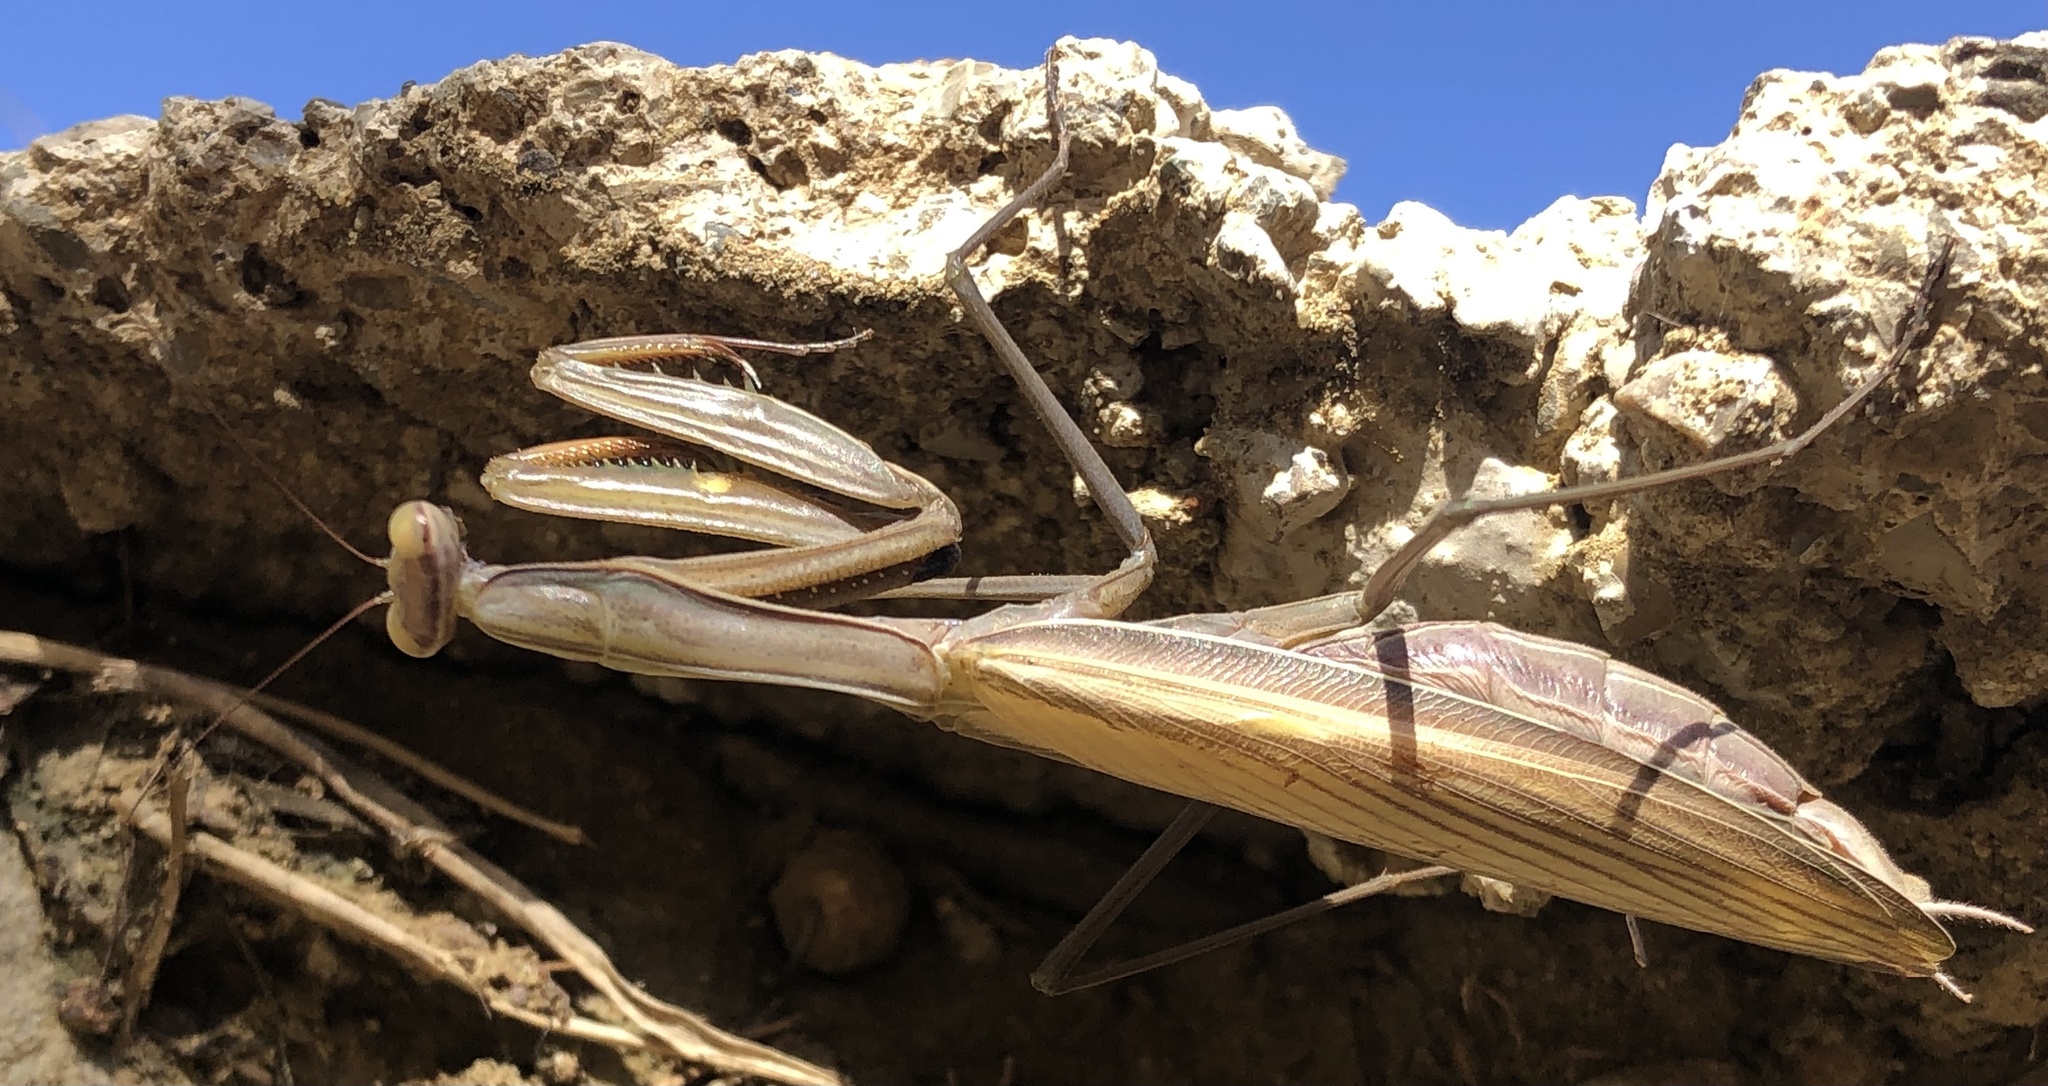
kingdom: Animalia
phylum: Arthropoda
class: Insecta
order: Mantodea
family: Mantidae
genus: Mantis
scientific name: Mantis religiosa
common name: Praying mantis
